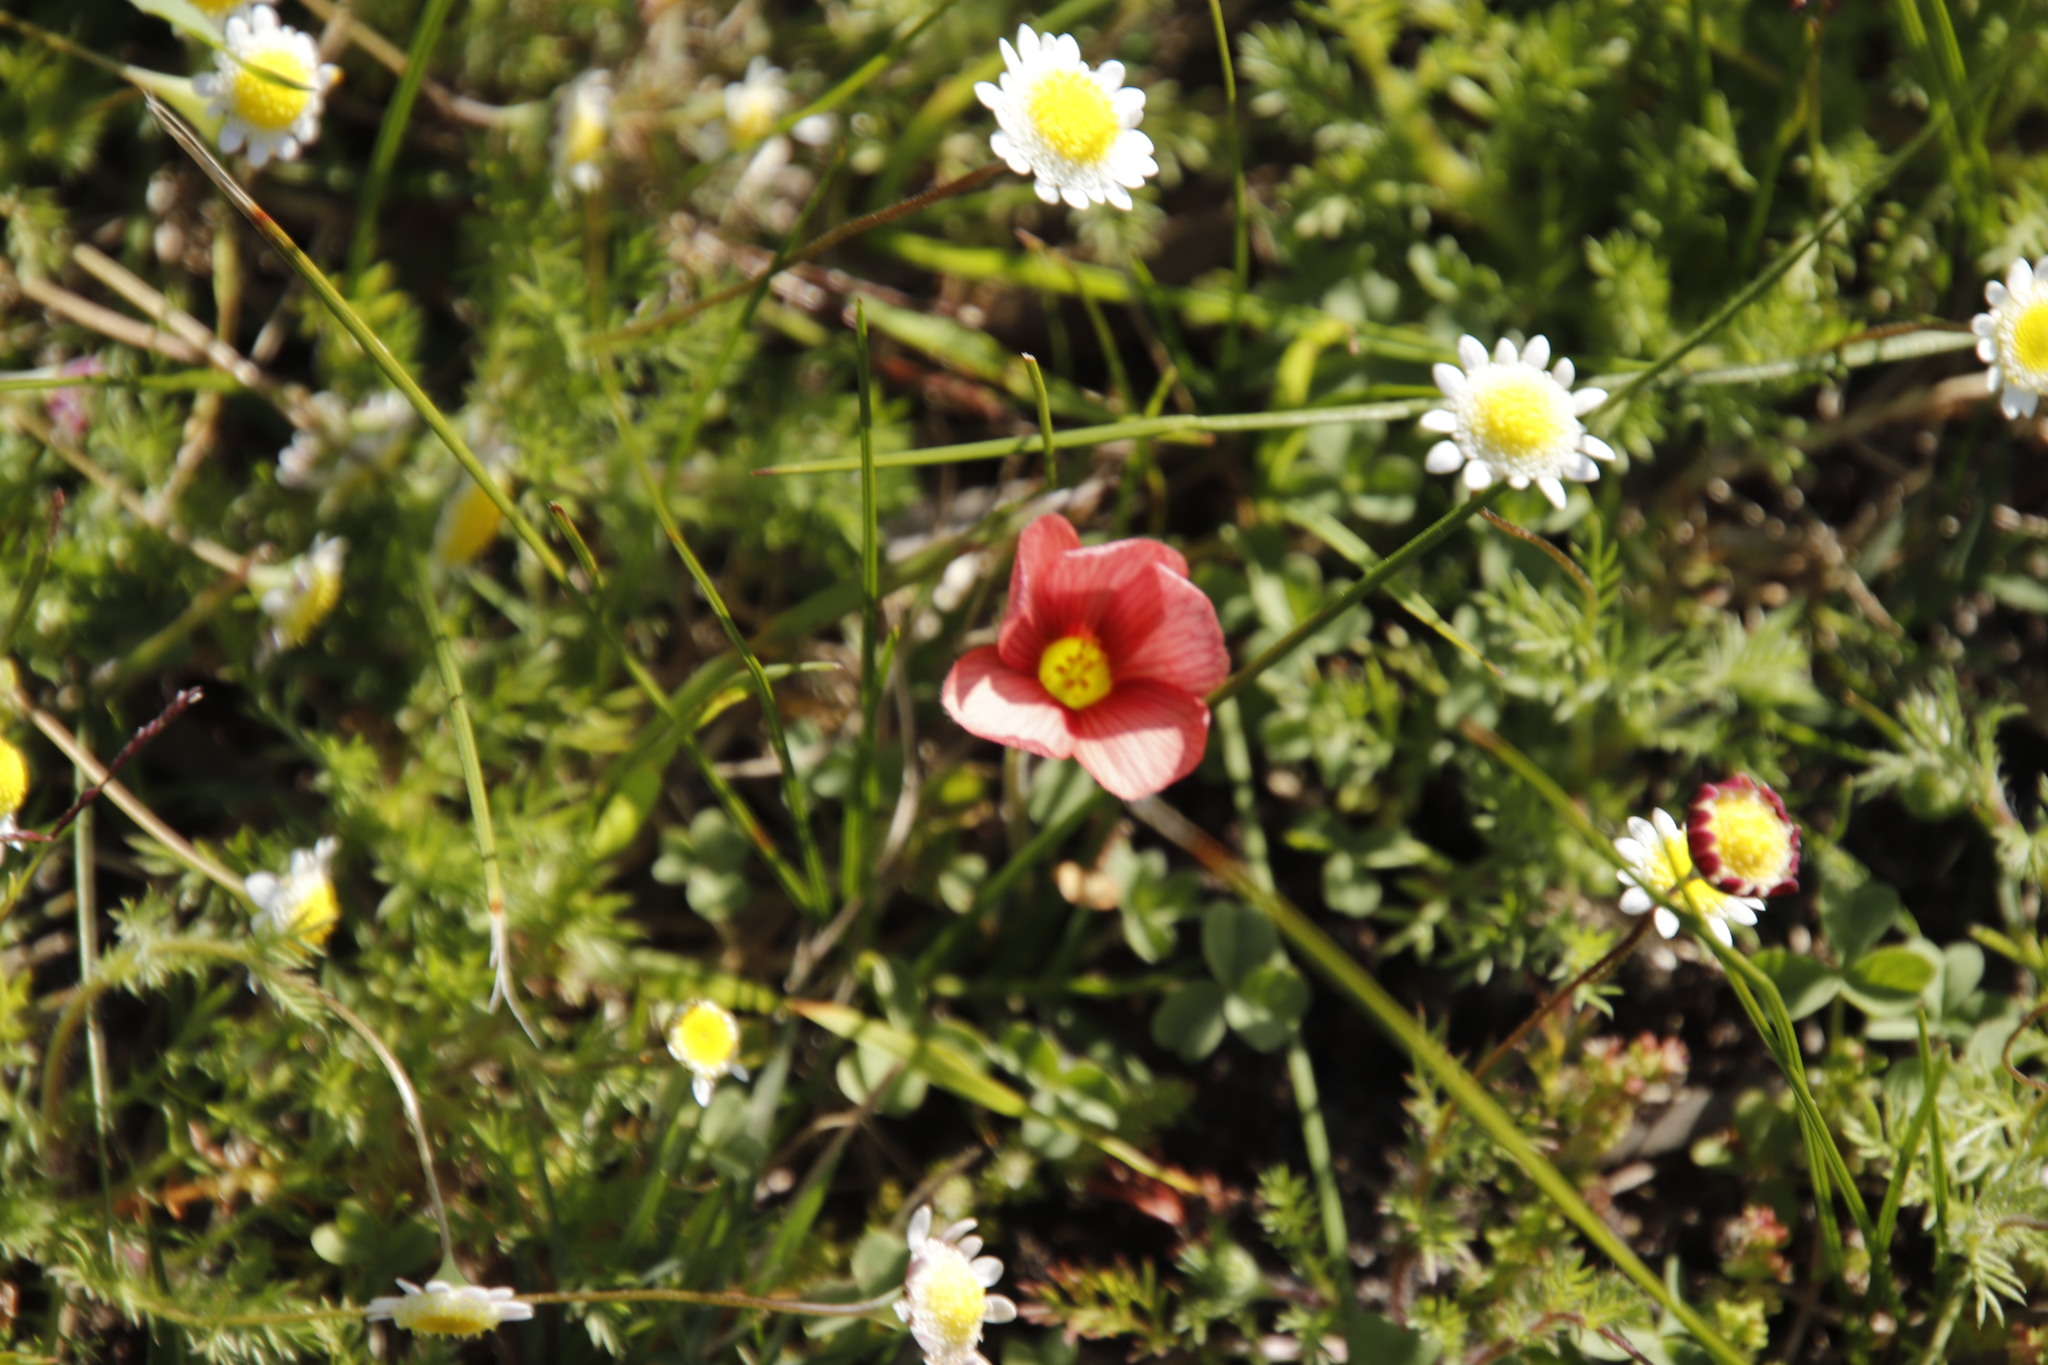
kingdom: Plantae
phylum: Tracheophyta
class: Magnoliopsida
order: Asterales
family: Asteraceae
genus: Cotula
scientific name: Cotula turbinata
